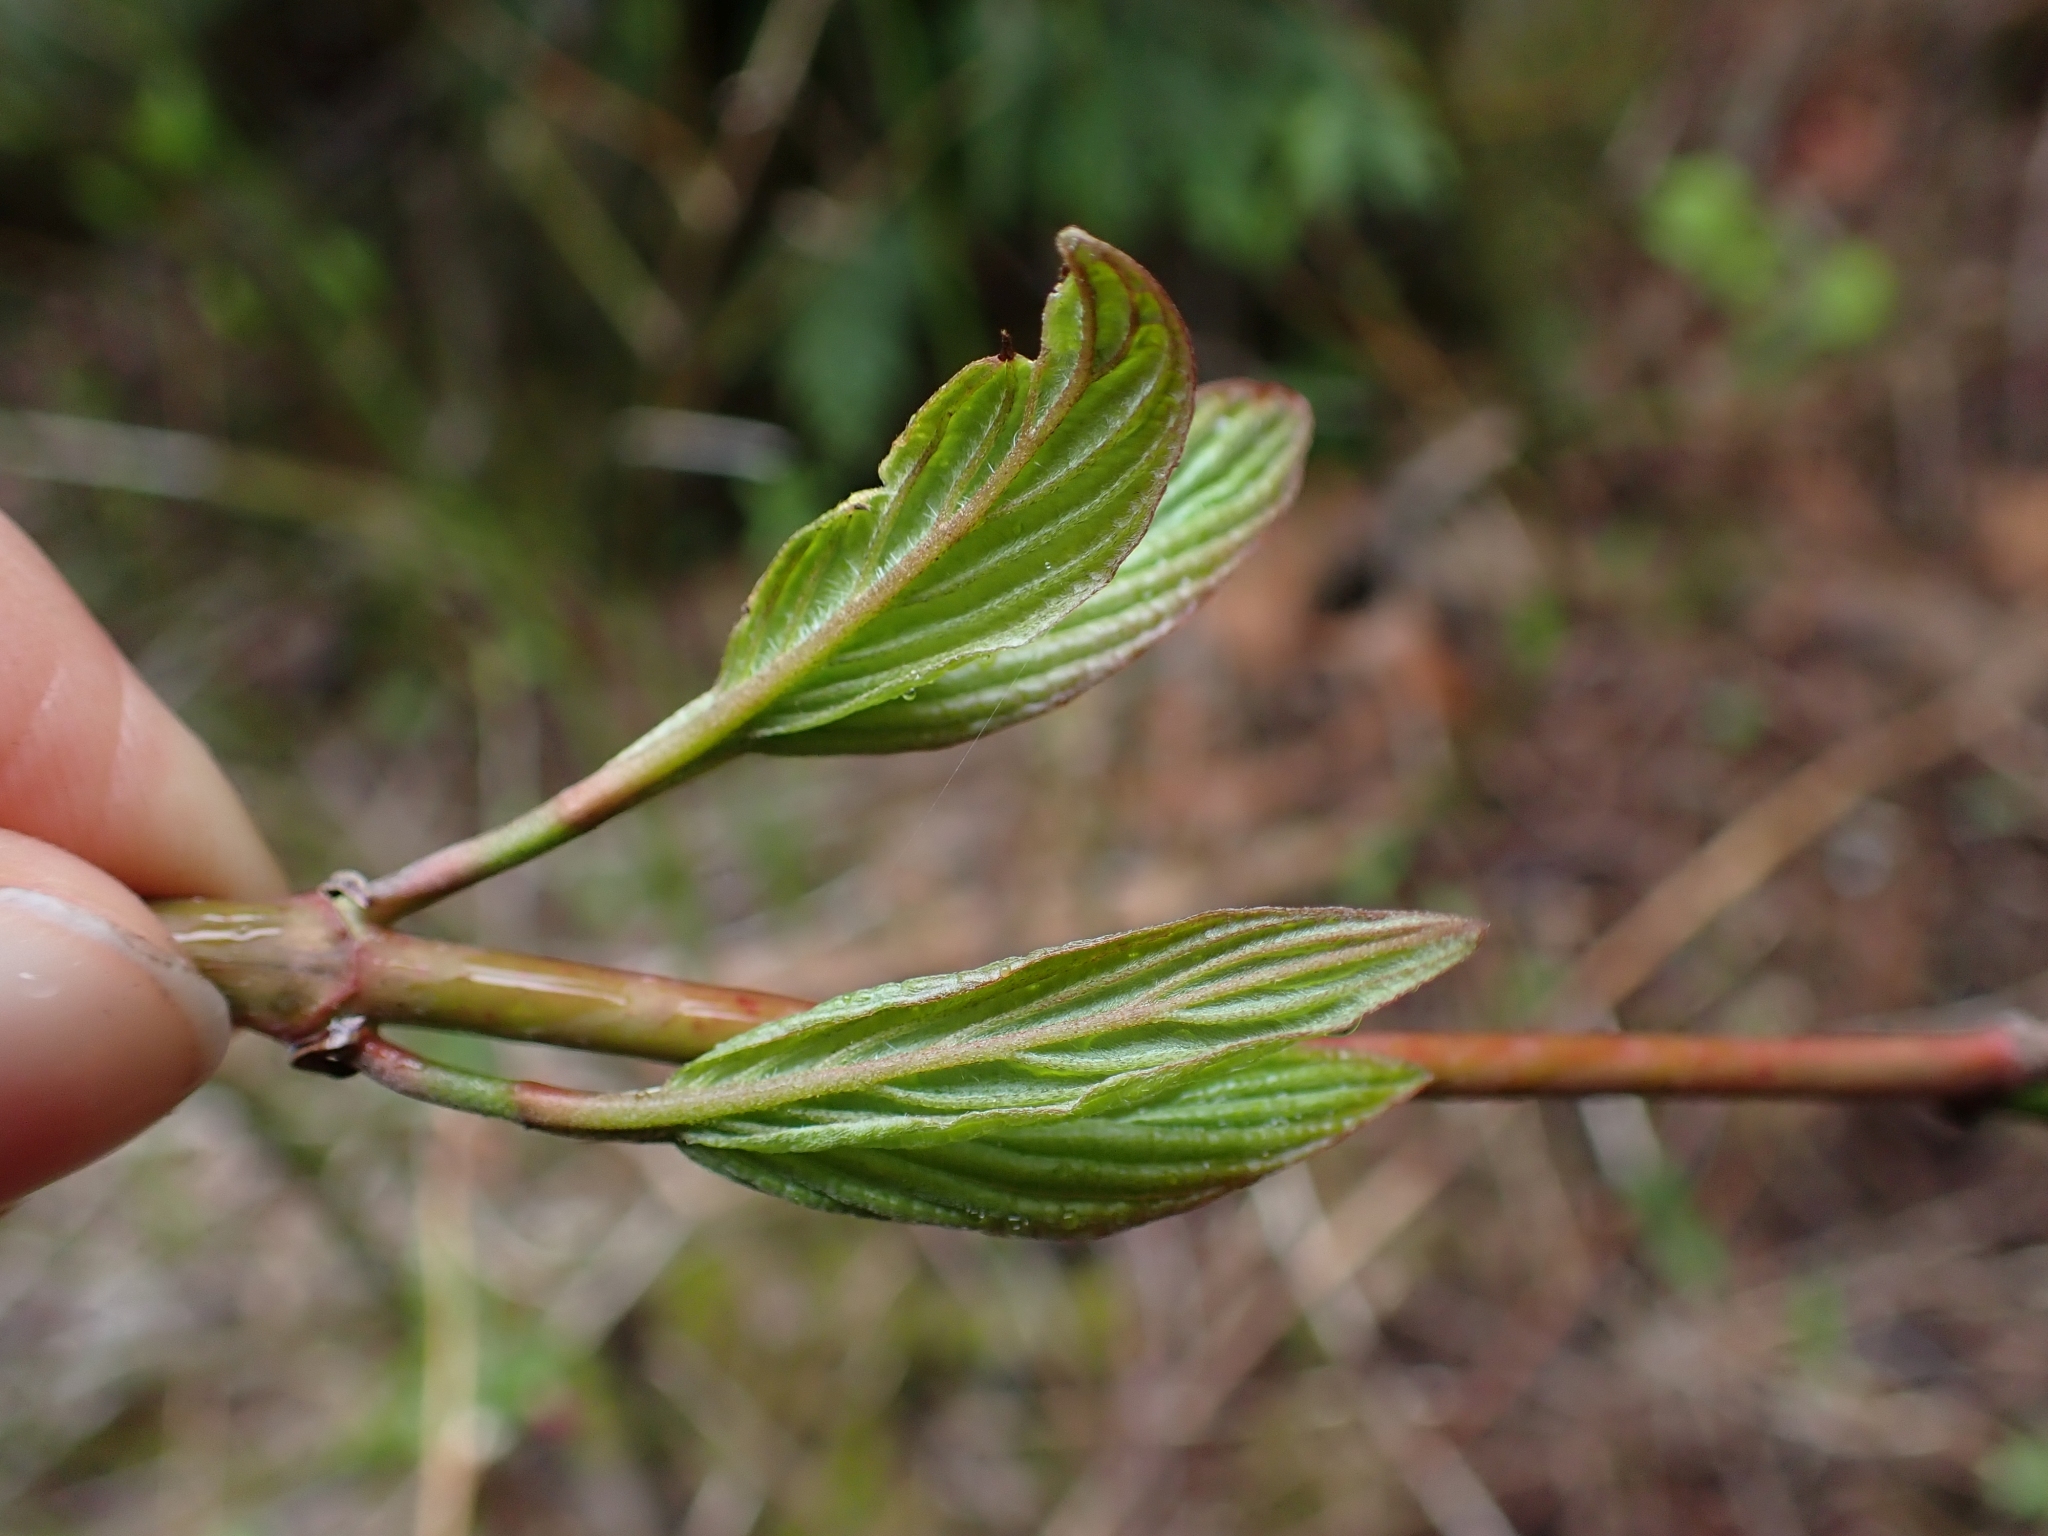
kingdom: Plantae
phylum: Tracheophyta
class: Magnoliopsida
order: Cornales
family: Cornaceae
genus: Cornus
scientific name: Cornus sericea
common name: Red-osier dogwood
